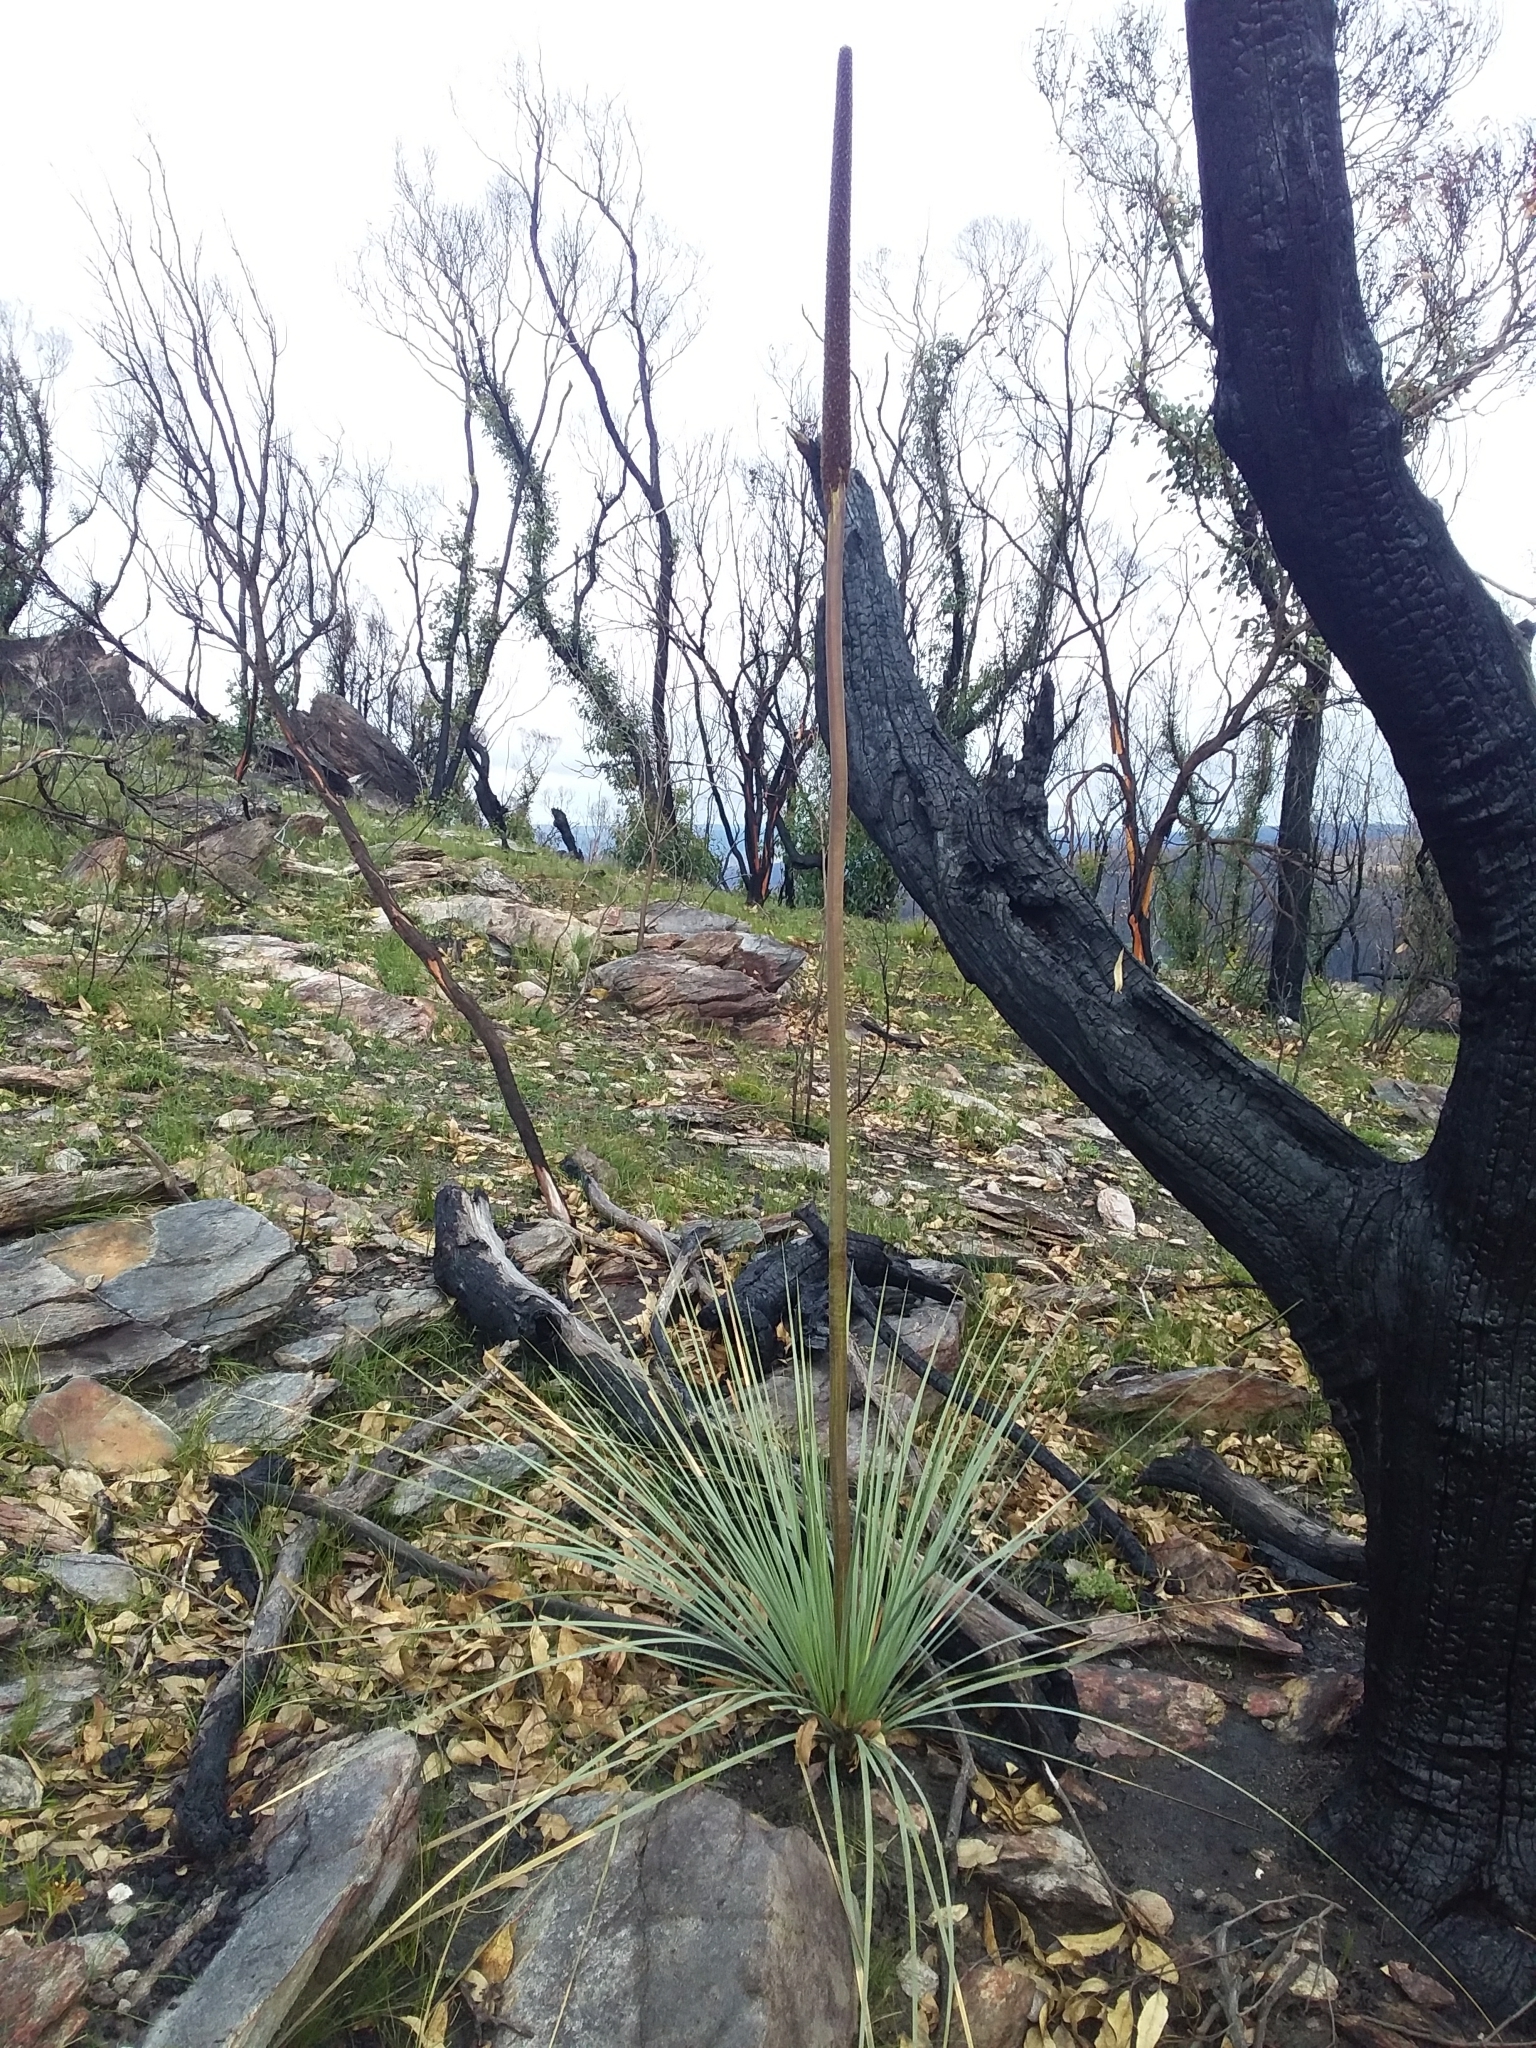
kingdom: Plantae
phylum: Tracheophyta
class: Liliopsida
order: Asparagales
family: Asphodelaceae
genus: Xanthorrhoea
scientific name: Xanthorrhoea semiplana
